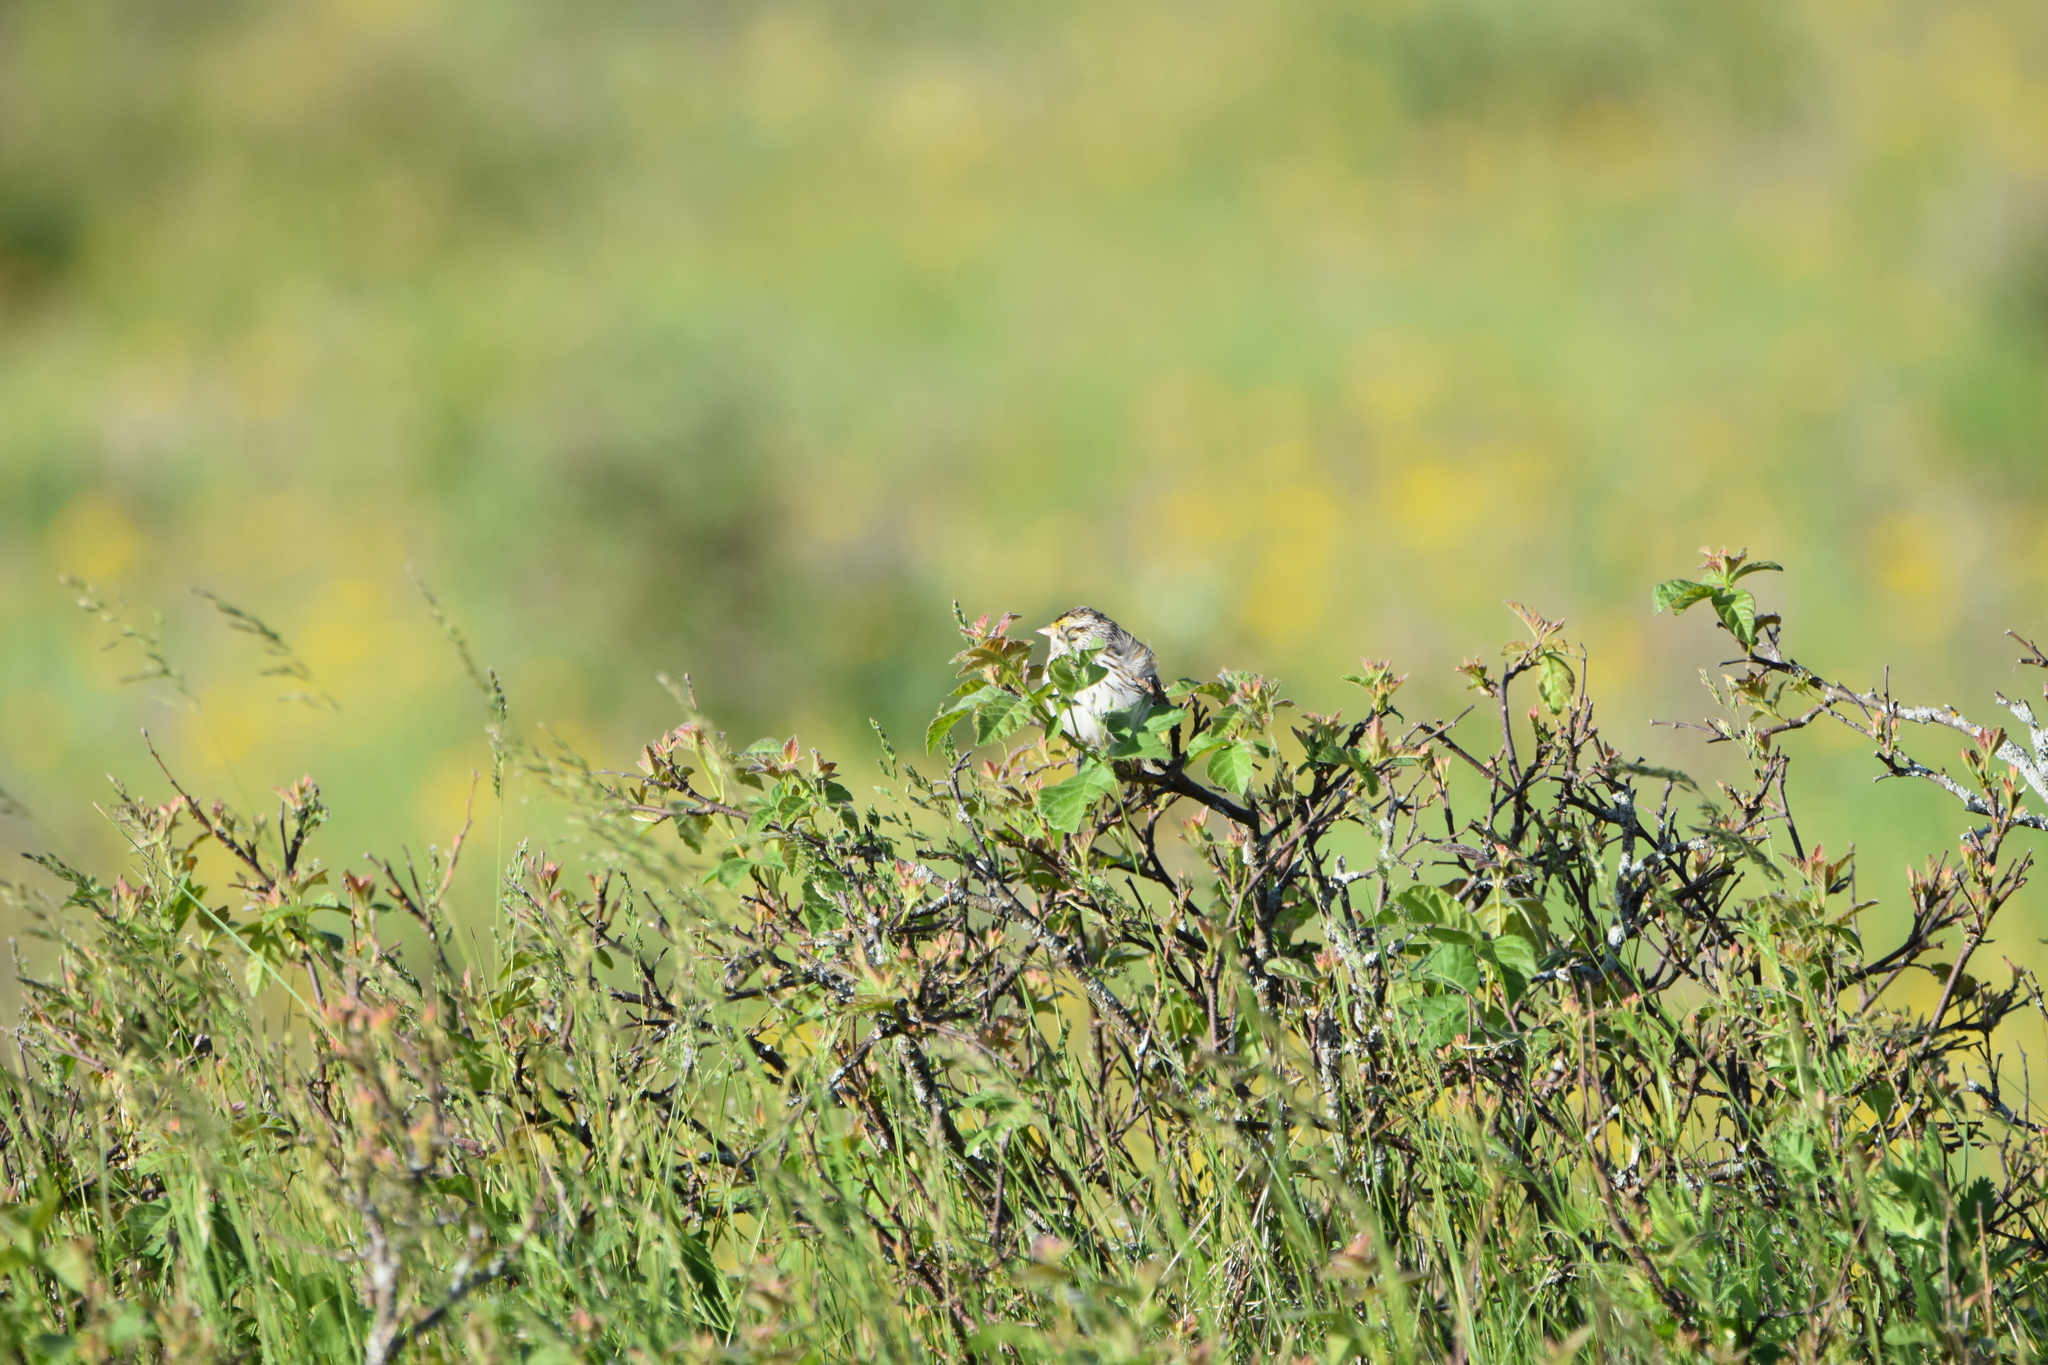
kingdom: Animalia
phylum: Chordata
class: Aves
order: Passeriformes
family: Passerellidae
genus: Passerculus
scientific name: Passerculus sandwichensis
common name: Savannah sparrow
